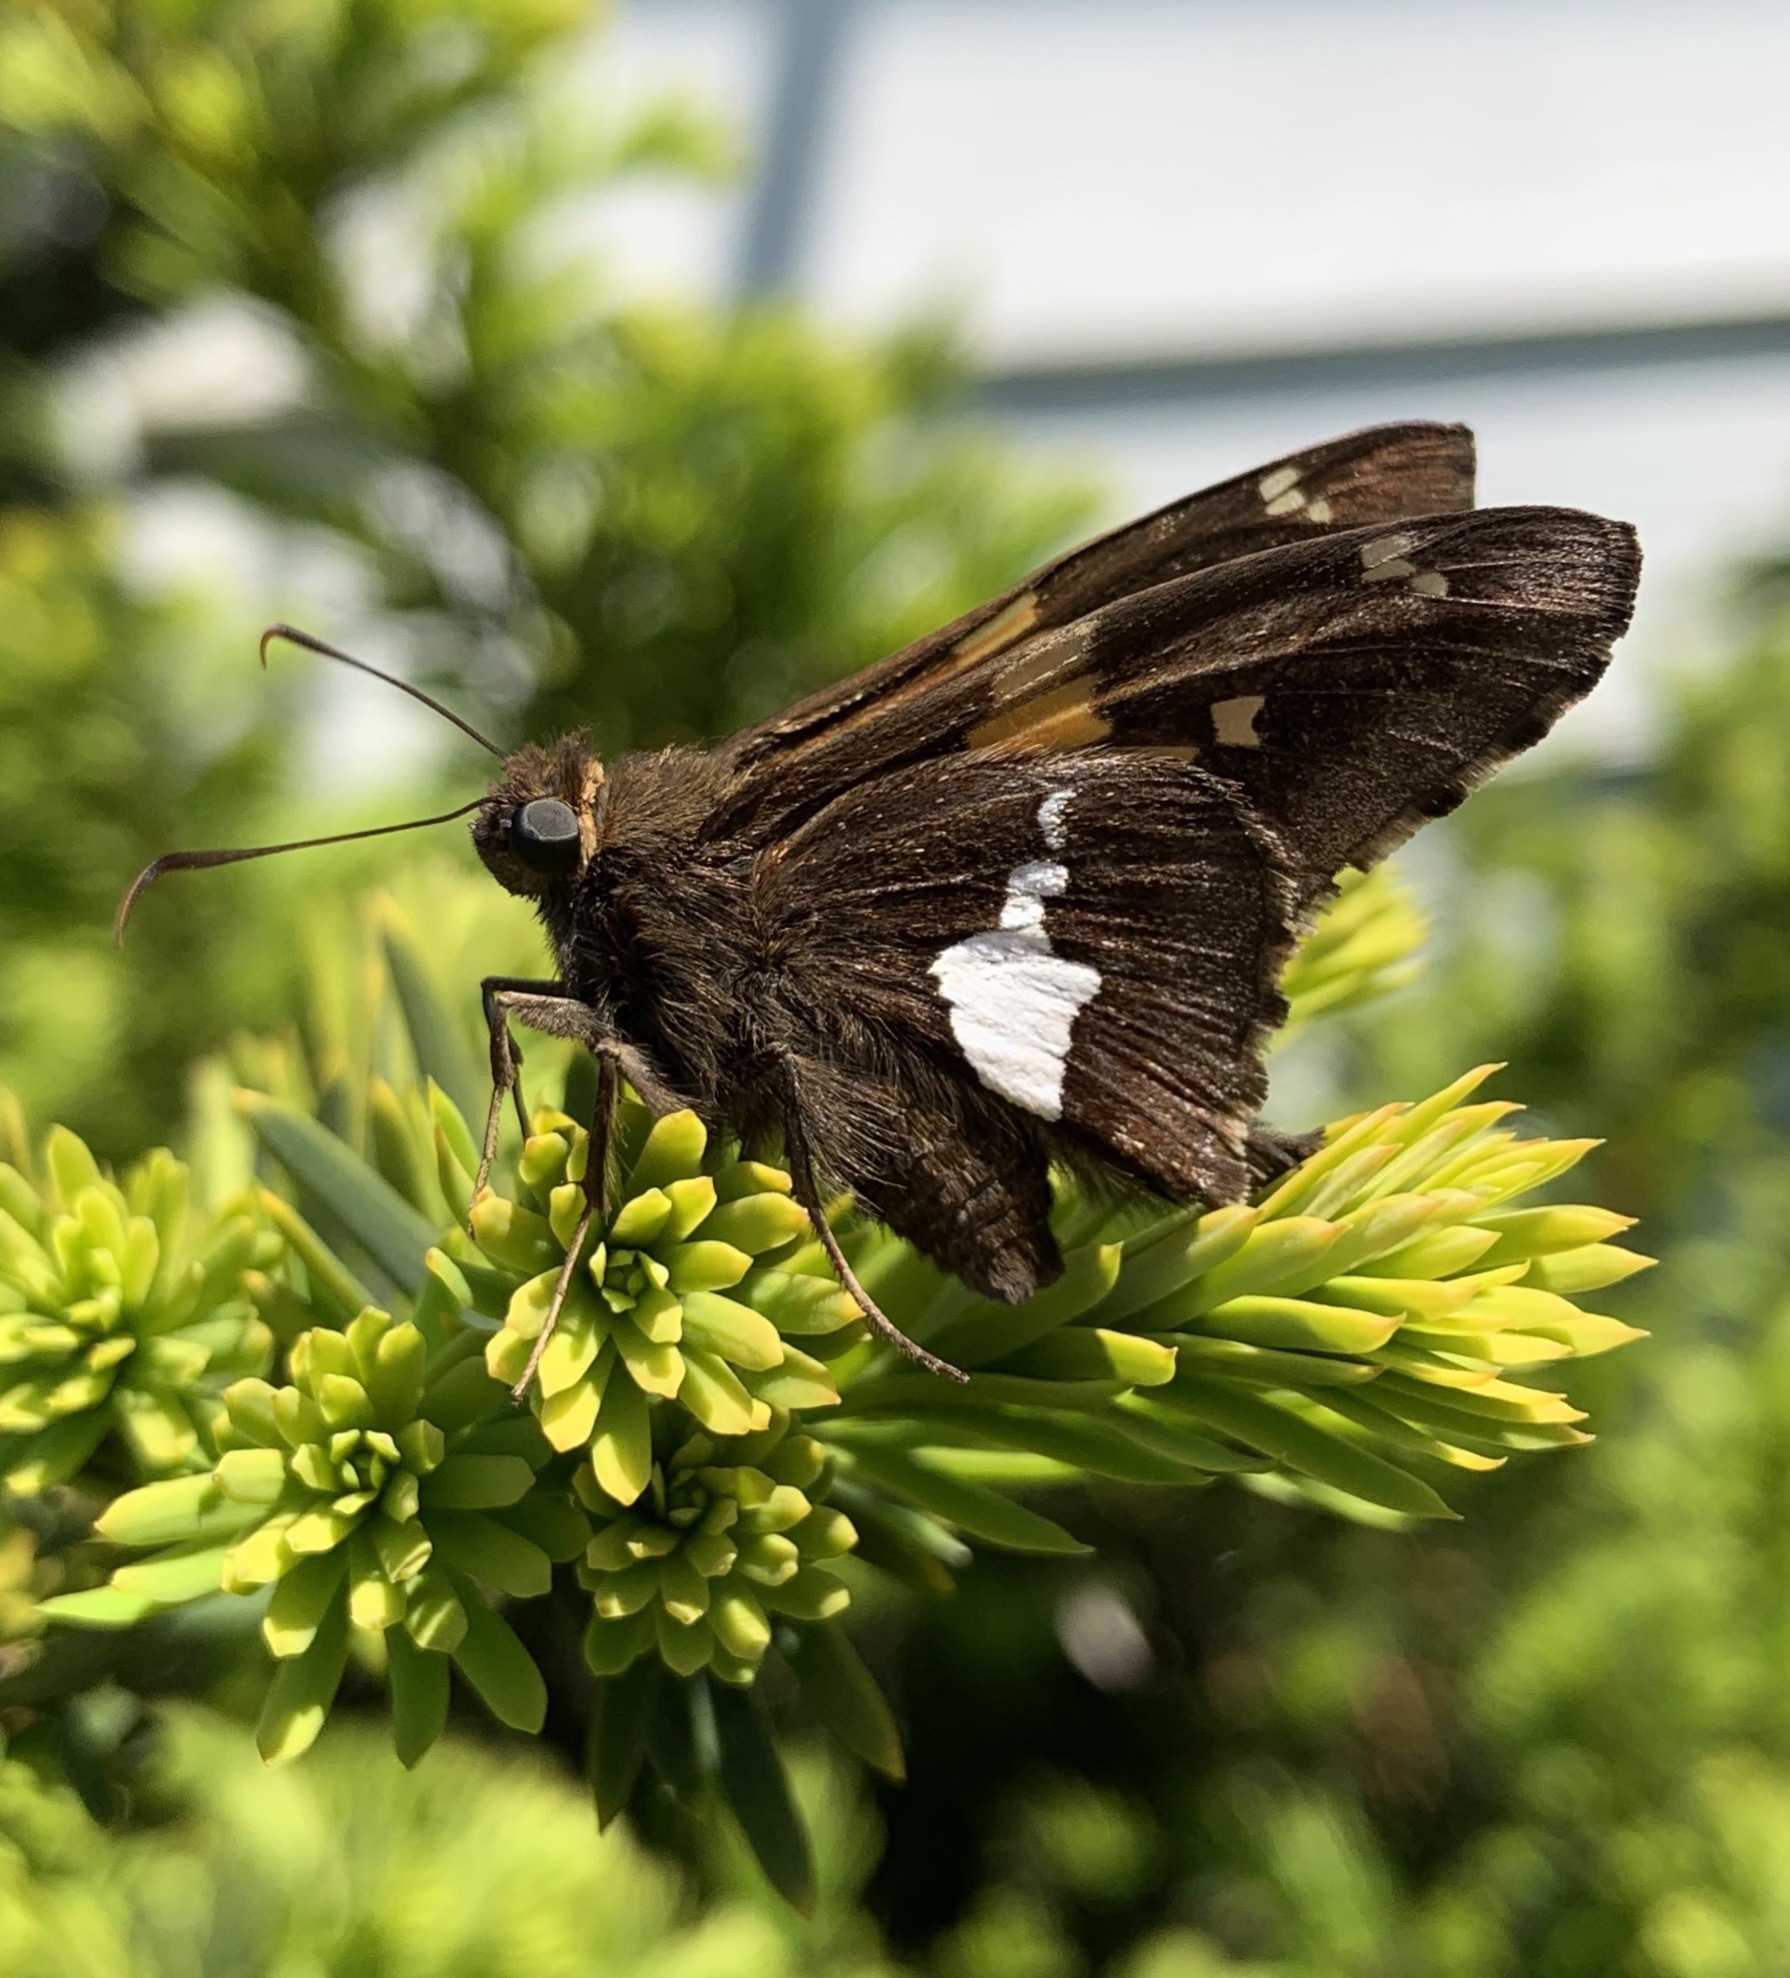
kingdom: Animalia
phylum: Arthropoda
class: Insecta
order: Lepidoptera
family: Hesperiidae
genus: Epargyreus
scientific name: Epargyreus clarus
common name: Silver-spotted skipper
